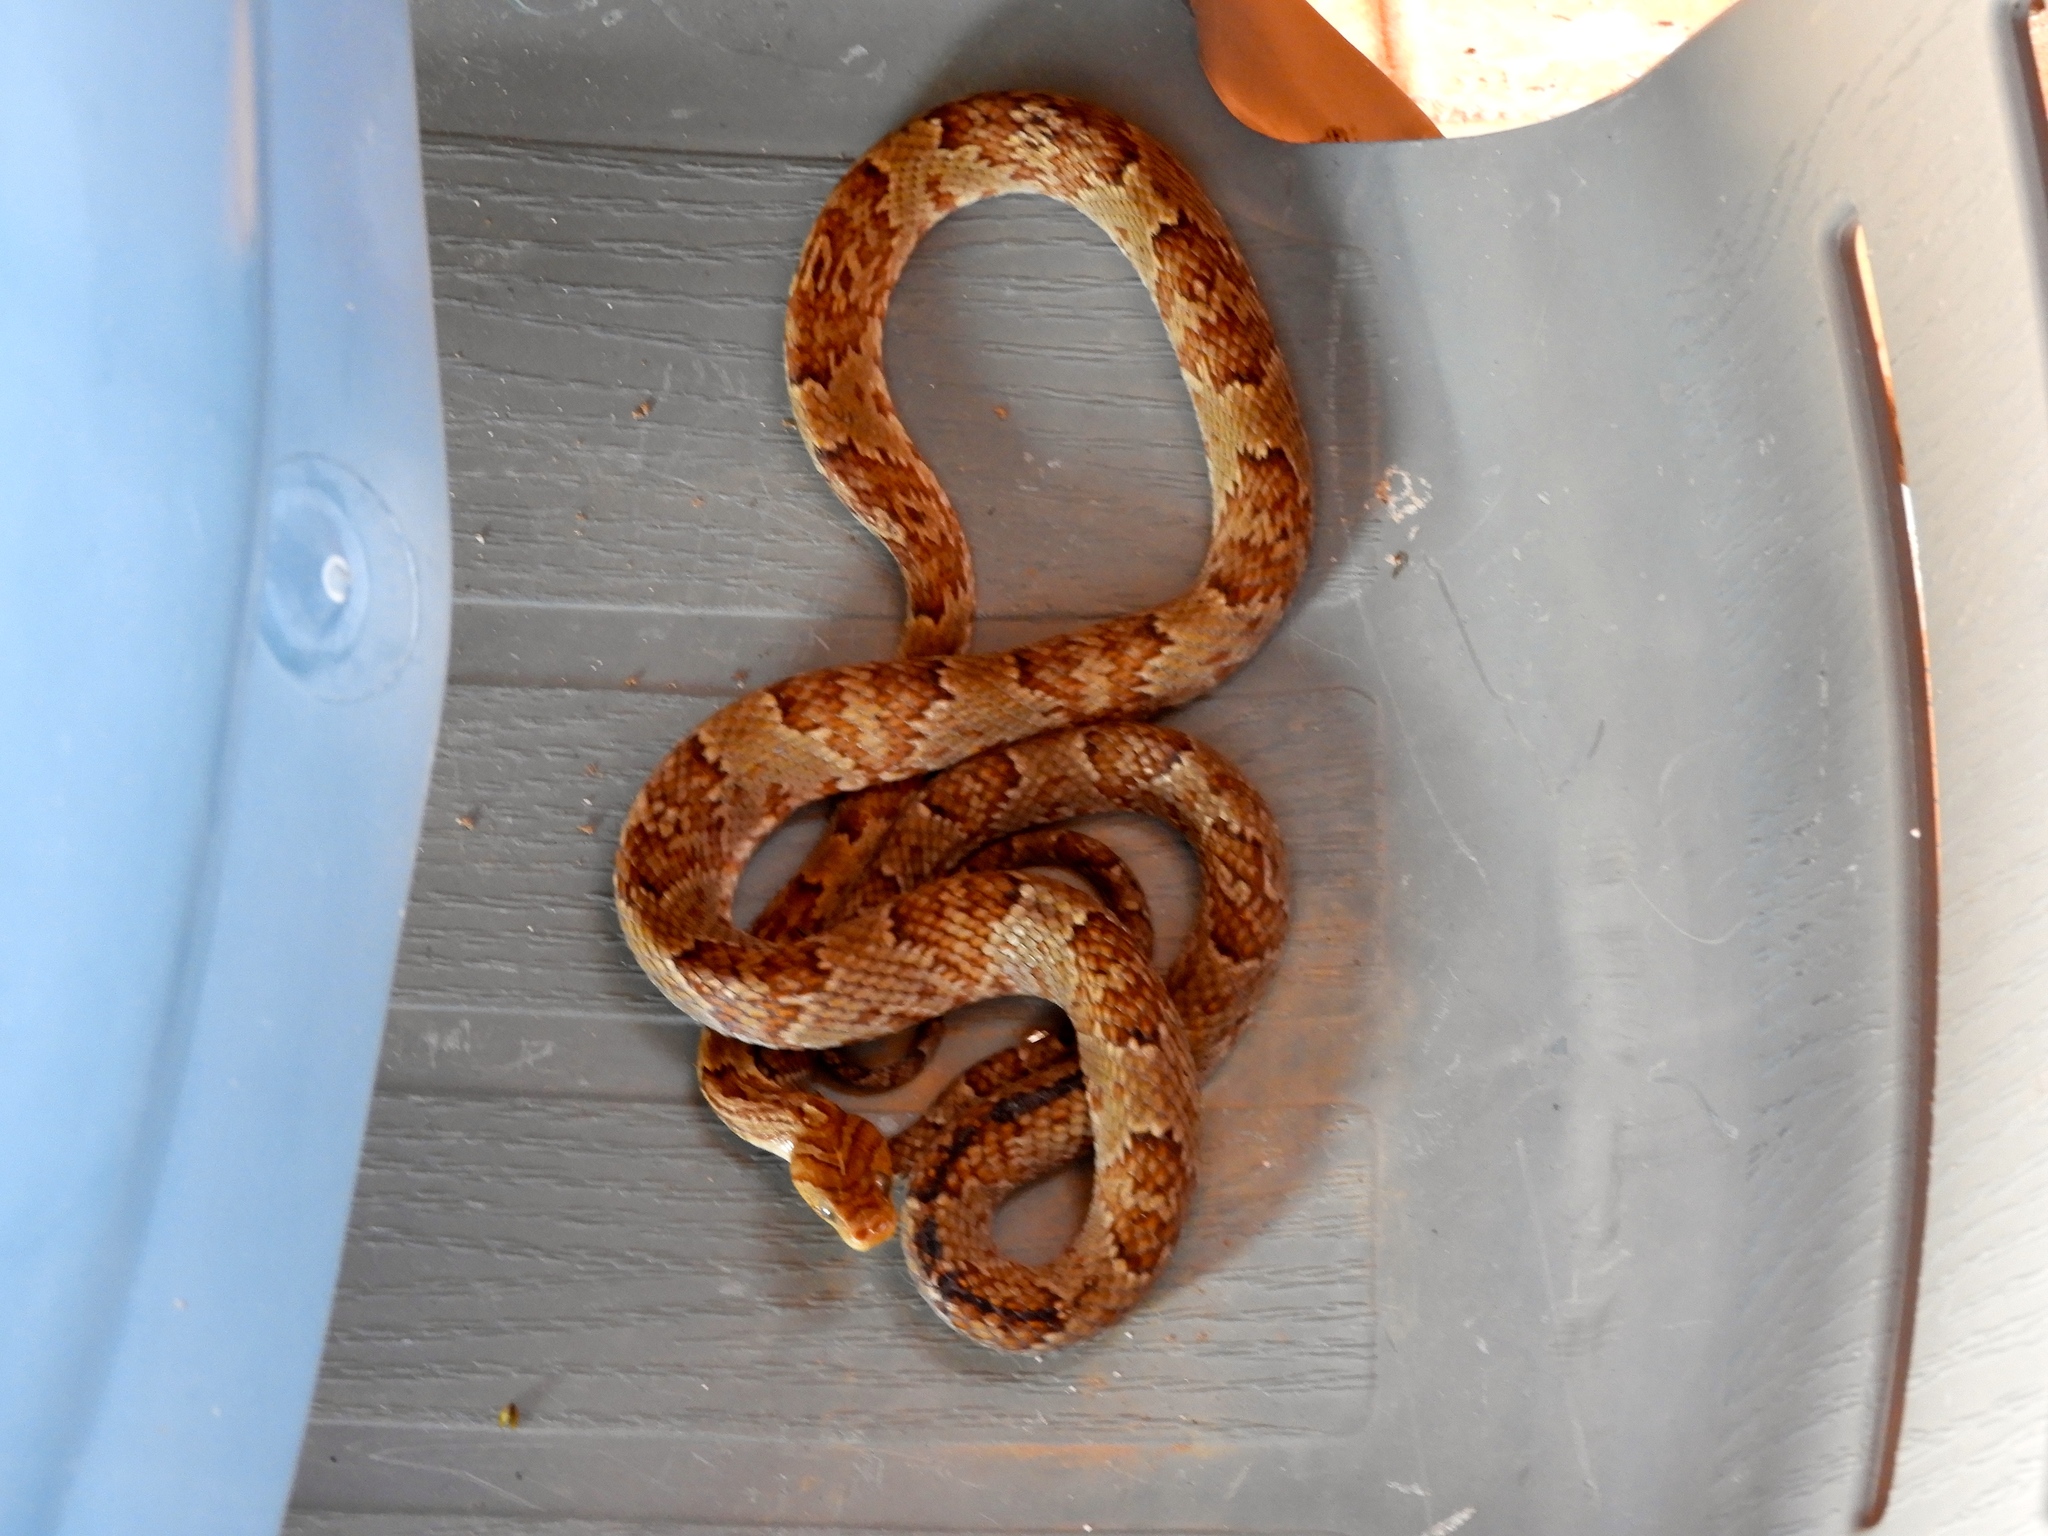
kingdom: Animalia
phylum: Chordata
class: Squamata
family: Colubridae
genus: Trimorphodon
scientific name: Trimorphodon paucimaculatus
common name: Sinaloan lyresnake
